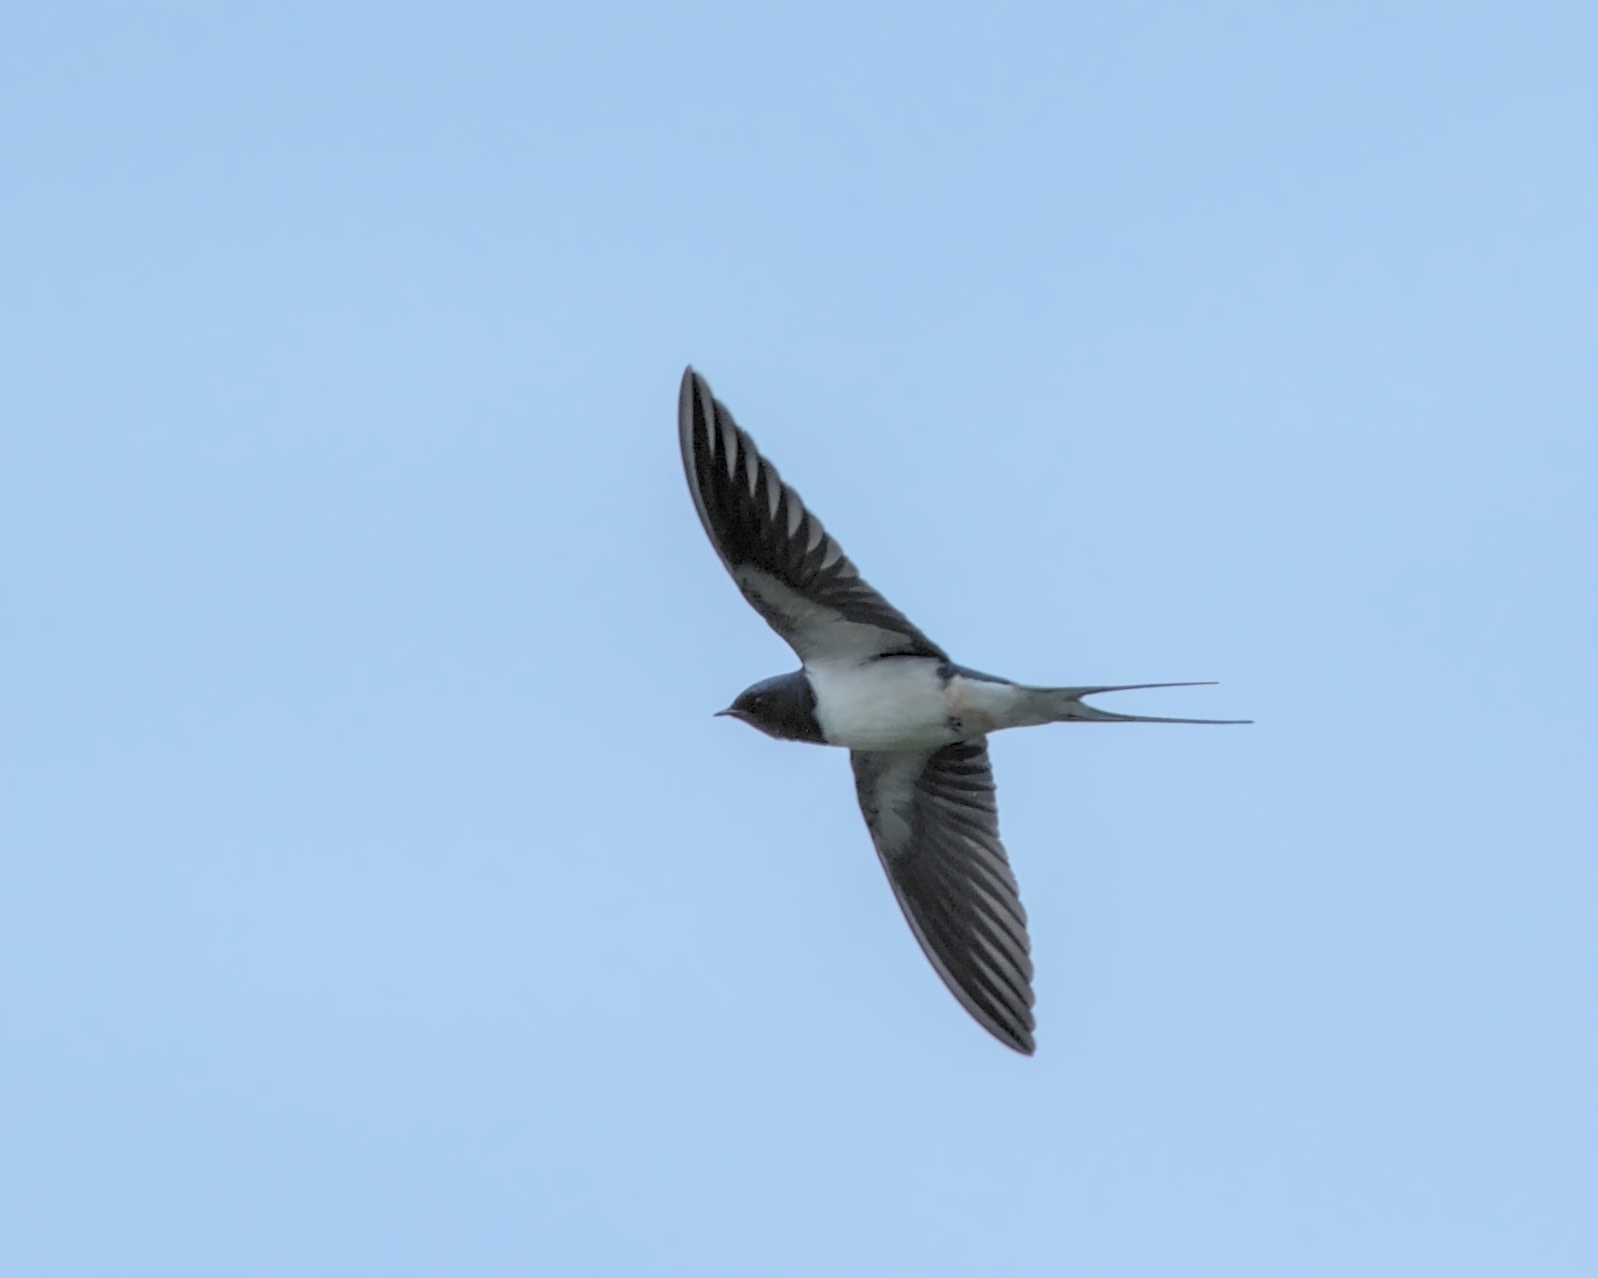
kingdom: Animalia
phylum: Chordata
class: Aves
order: Passeriformes
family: Hirundinidae
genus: Hirundo
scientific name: Hirundo rustica
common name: Barn swallow
